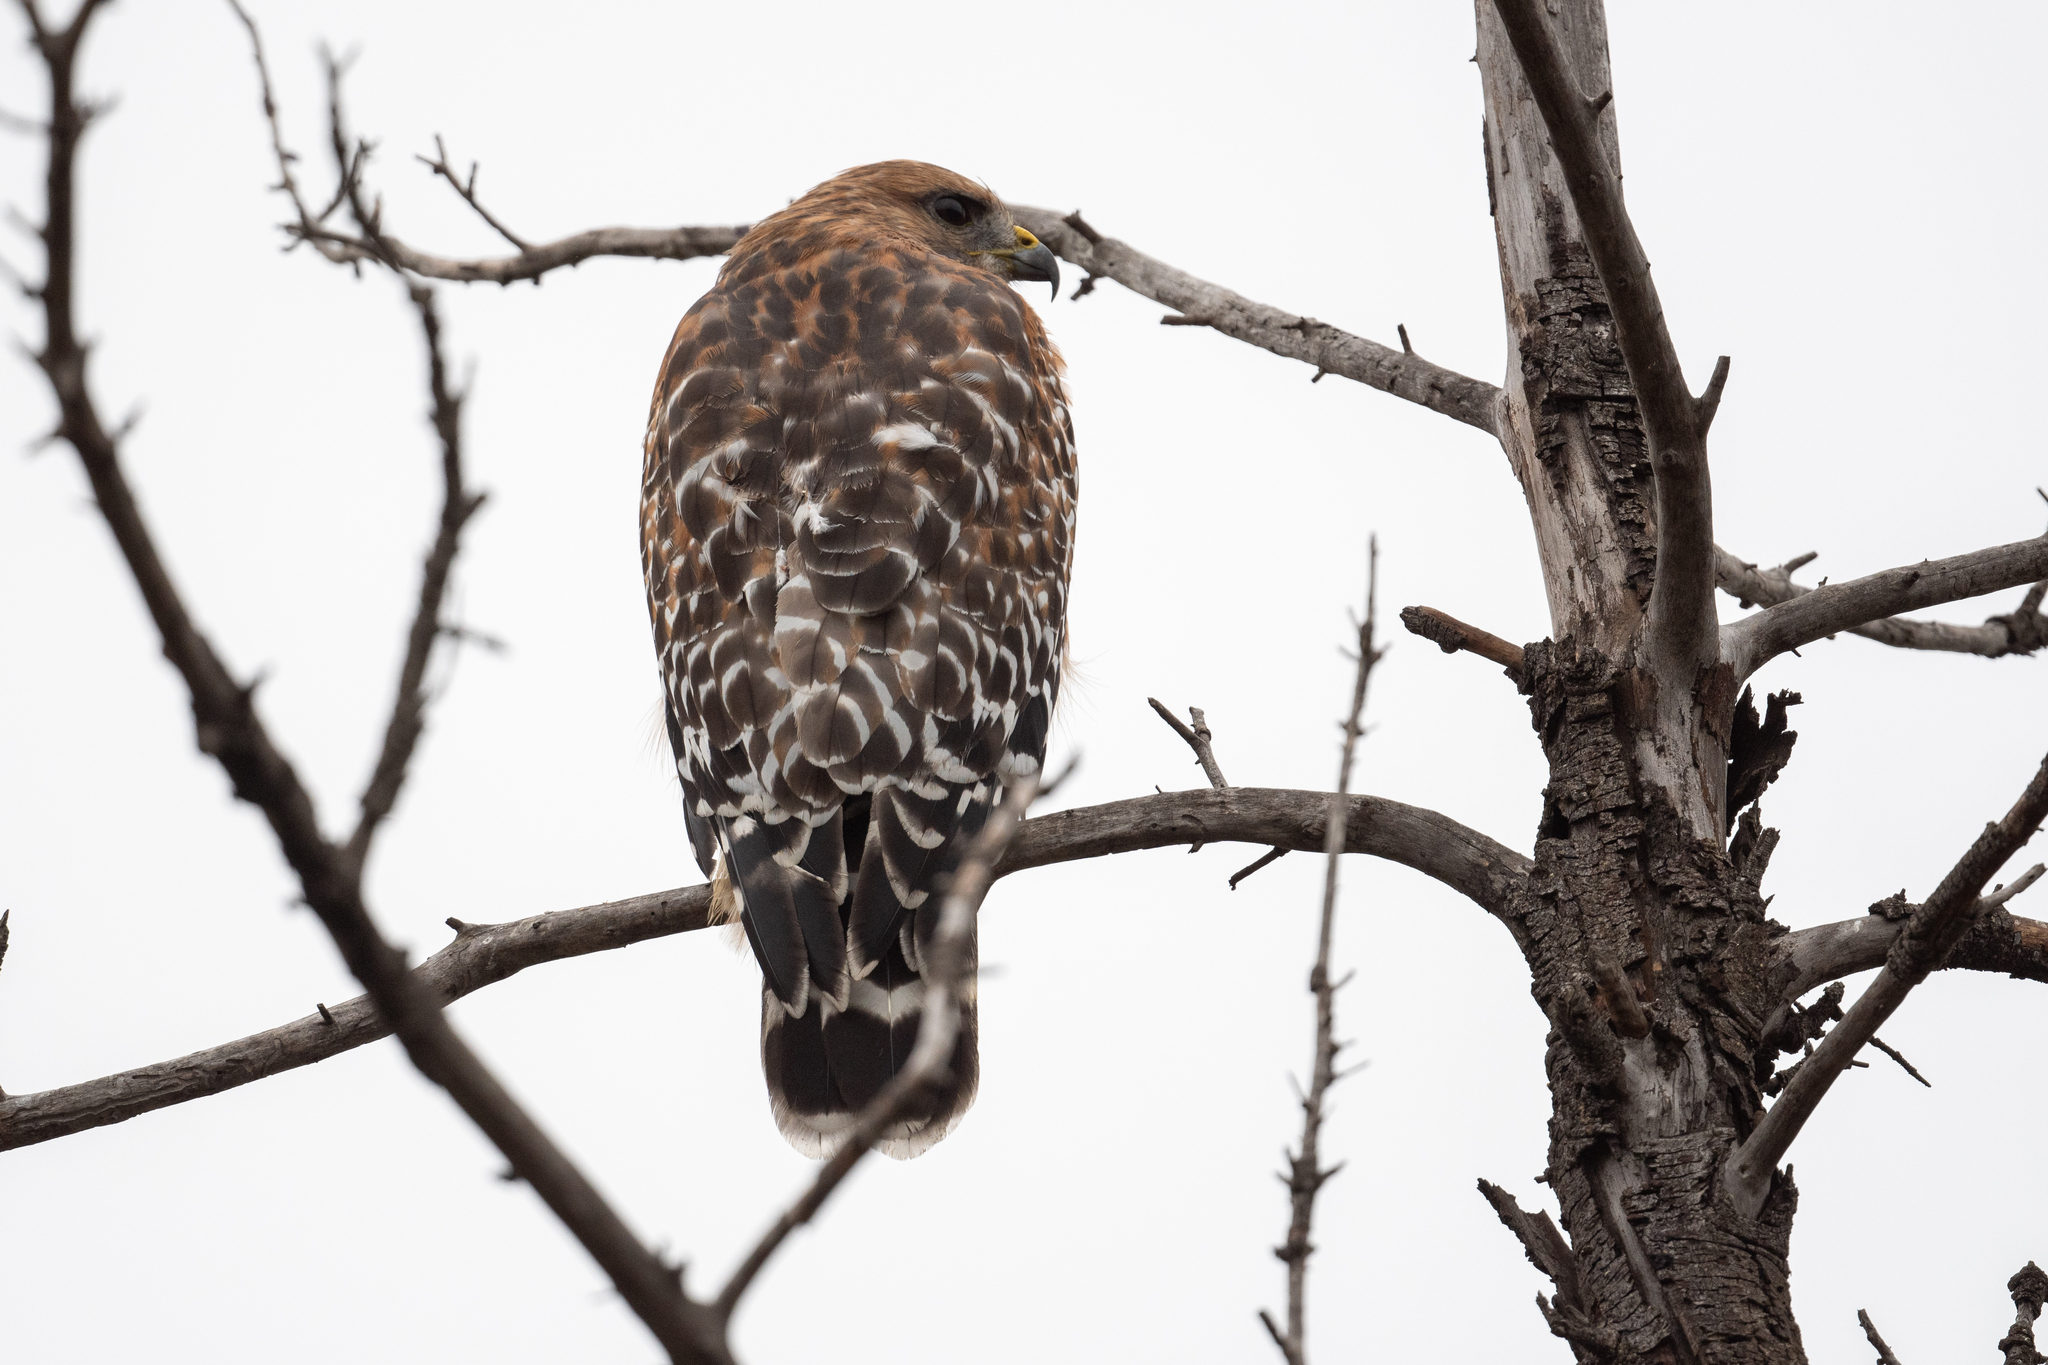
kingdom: Animalia
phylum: Chordata
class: Aves
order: Passeriformes
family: Mimidae
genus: Mimus
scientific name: Mimus polyglottos
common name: Northern mockingbird
